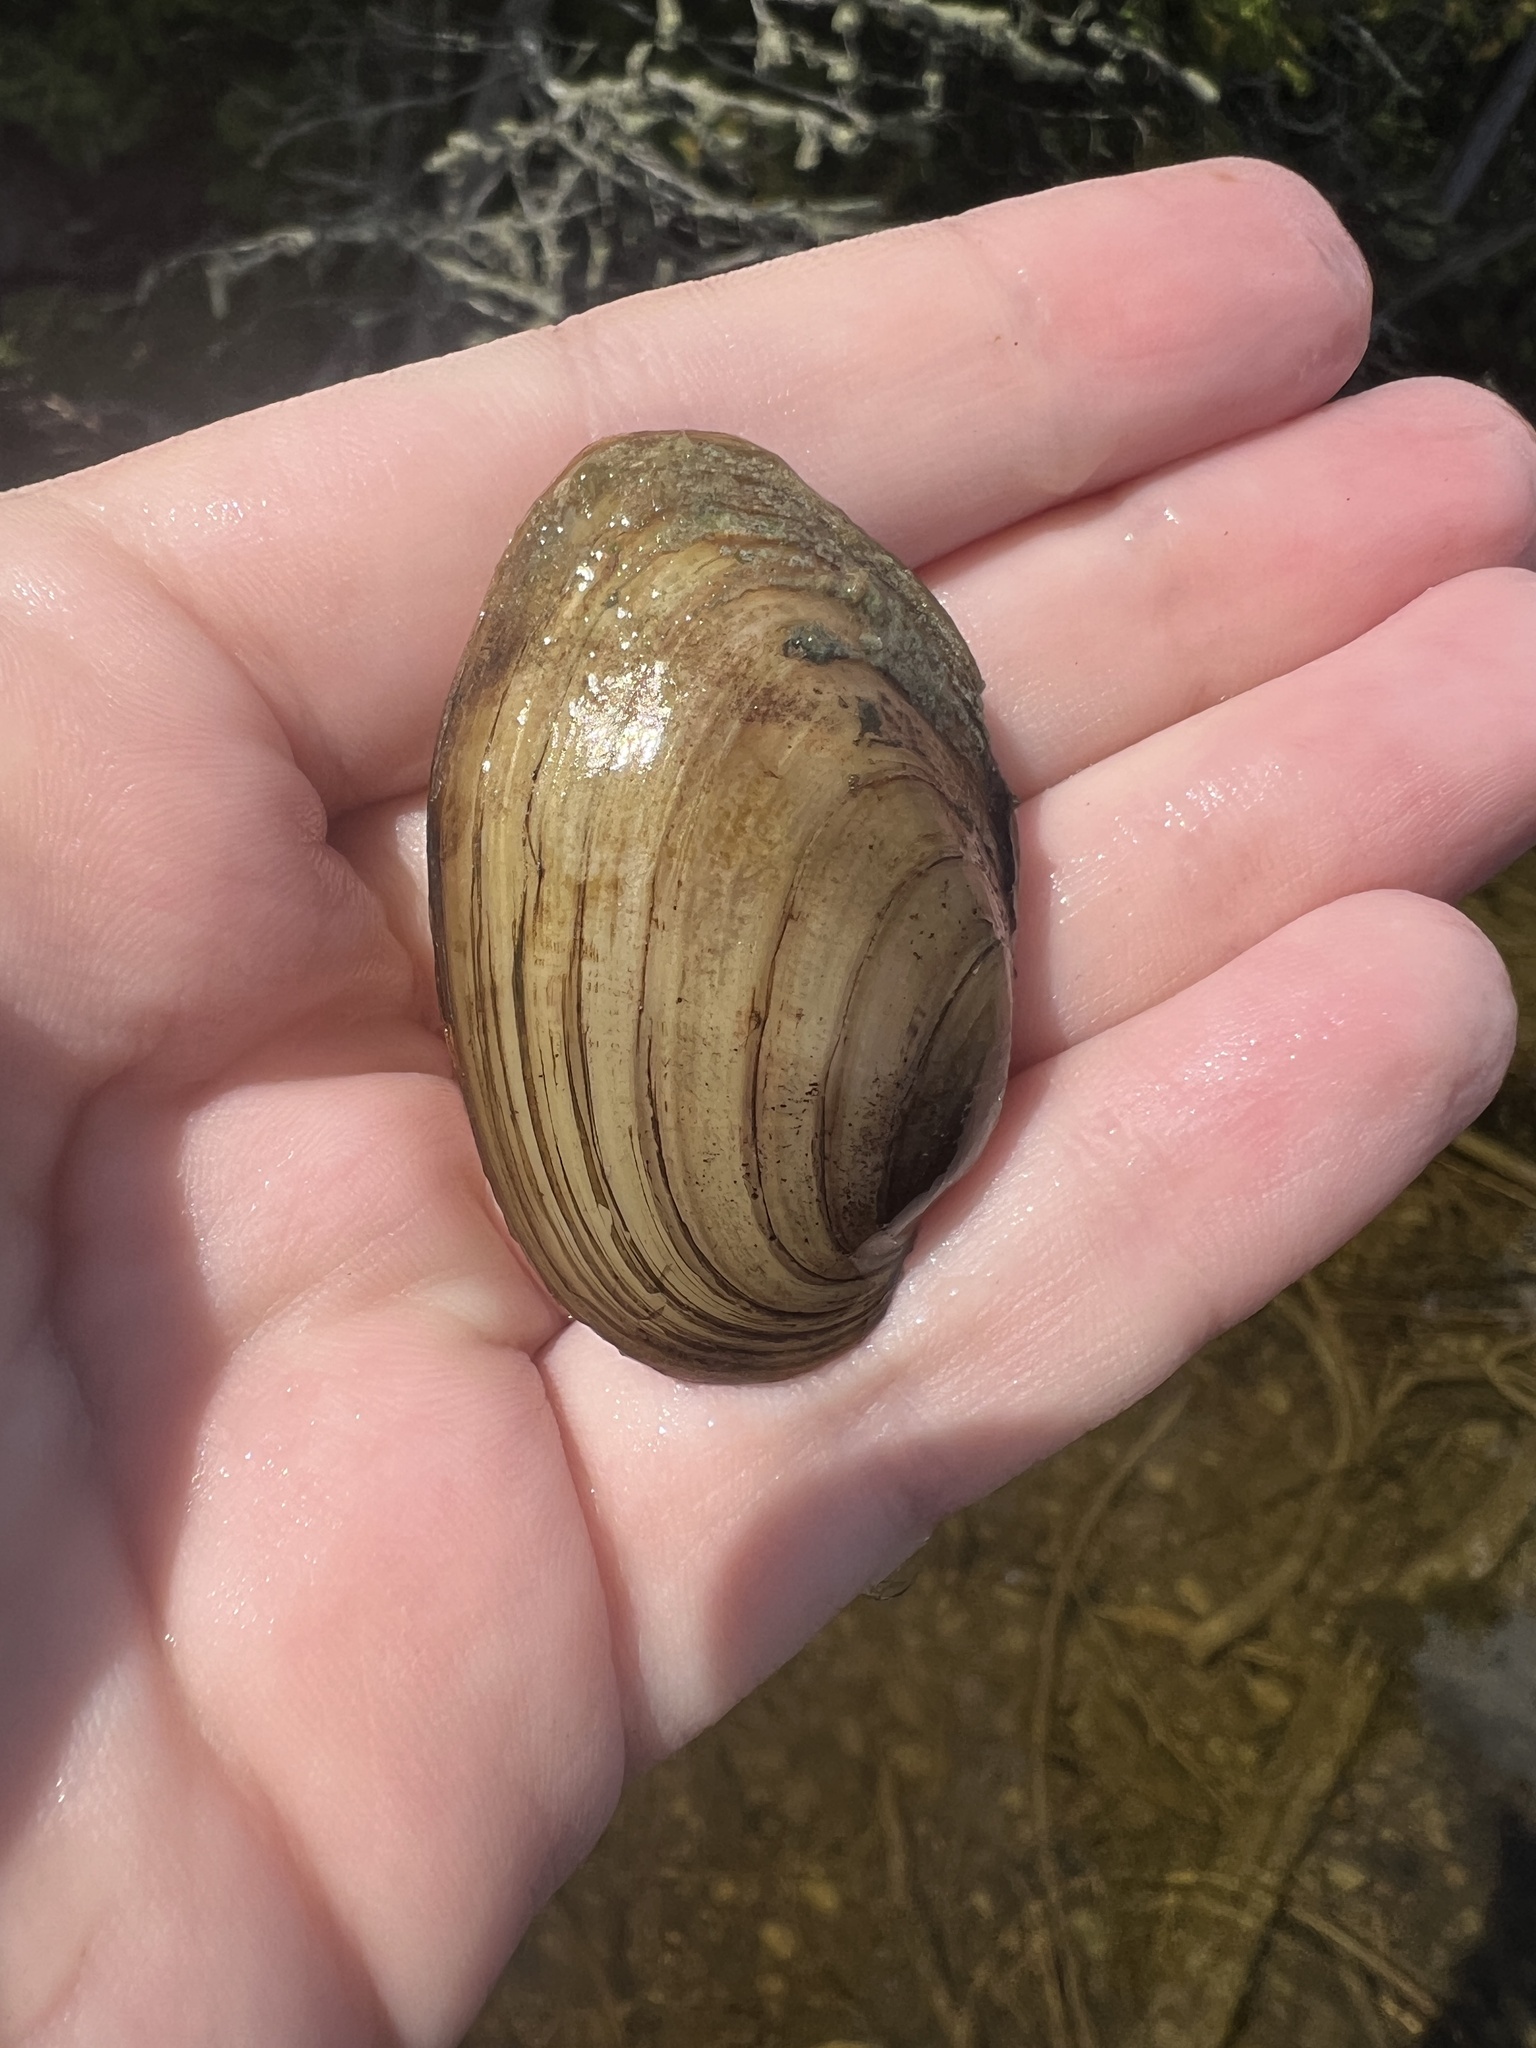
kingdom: Animalia
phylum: Mollusca
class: Bivalvia
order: Unionida
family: Unionidae
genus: Lampsilis
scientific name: Lampsilis siliquoidea
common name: Fatmucket
